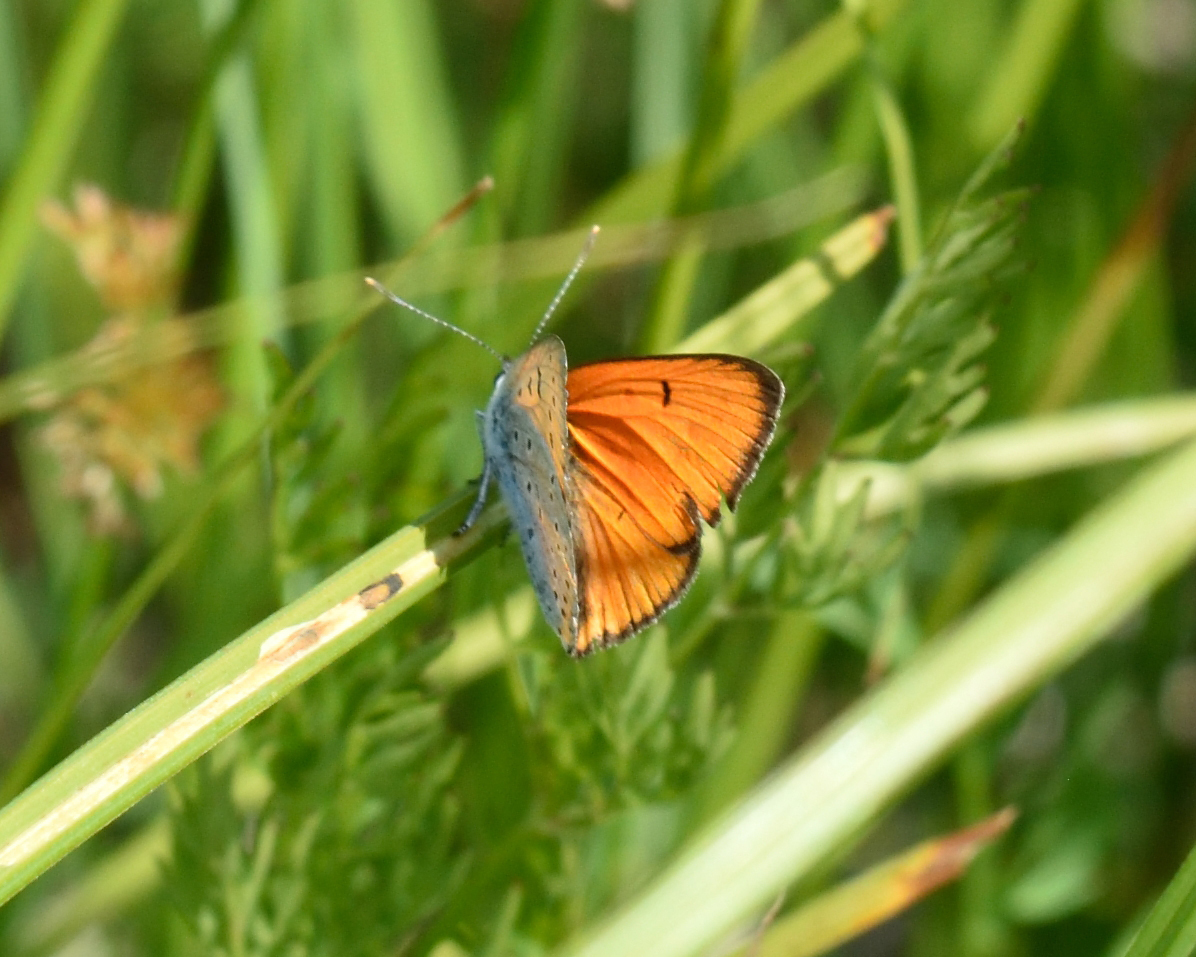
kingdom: Animalia
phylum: Arthropoda
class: Insecta
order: Lepidoptera
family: Lycaenidae
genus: Lycaena
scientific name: Lycaena dispar
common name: Large copper
